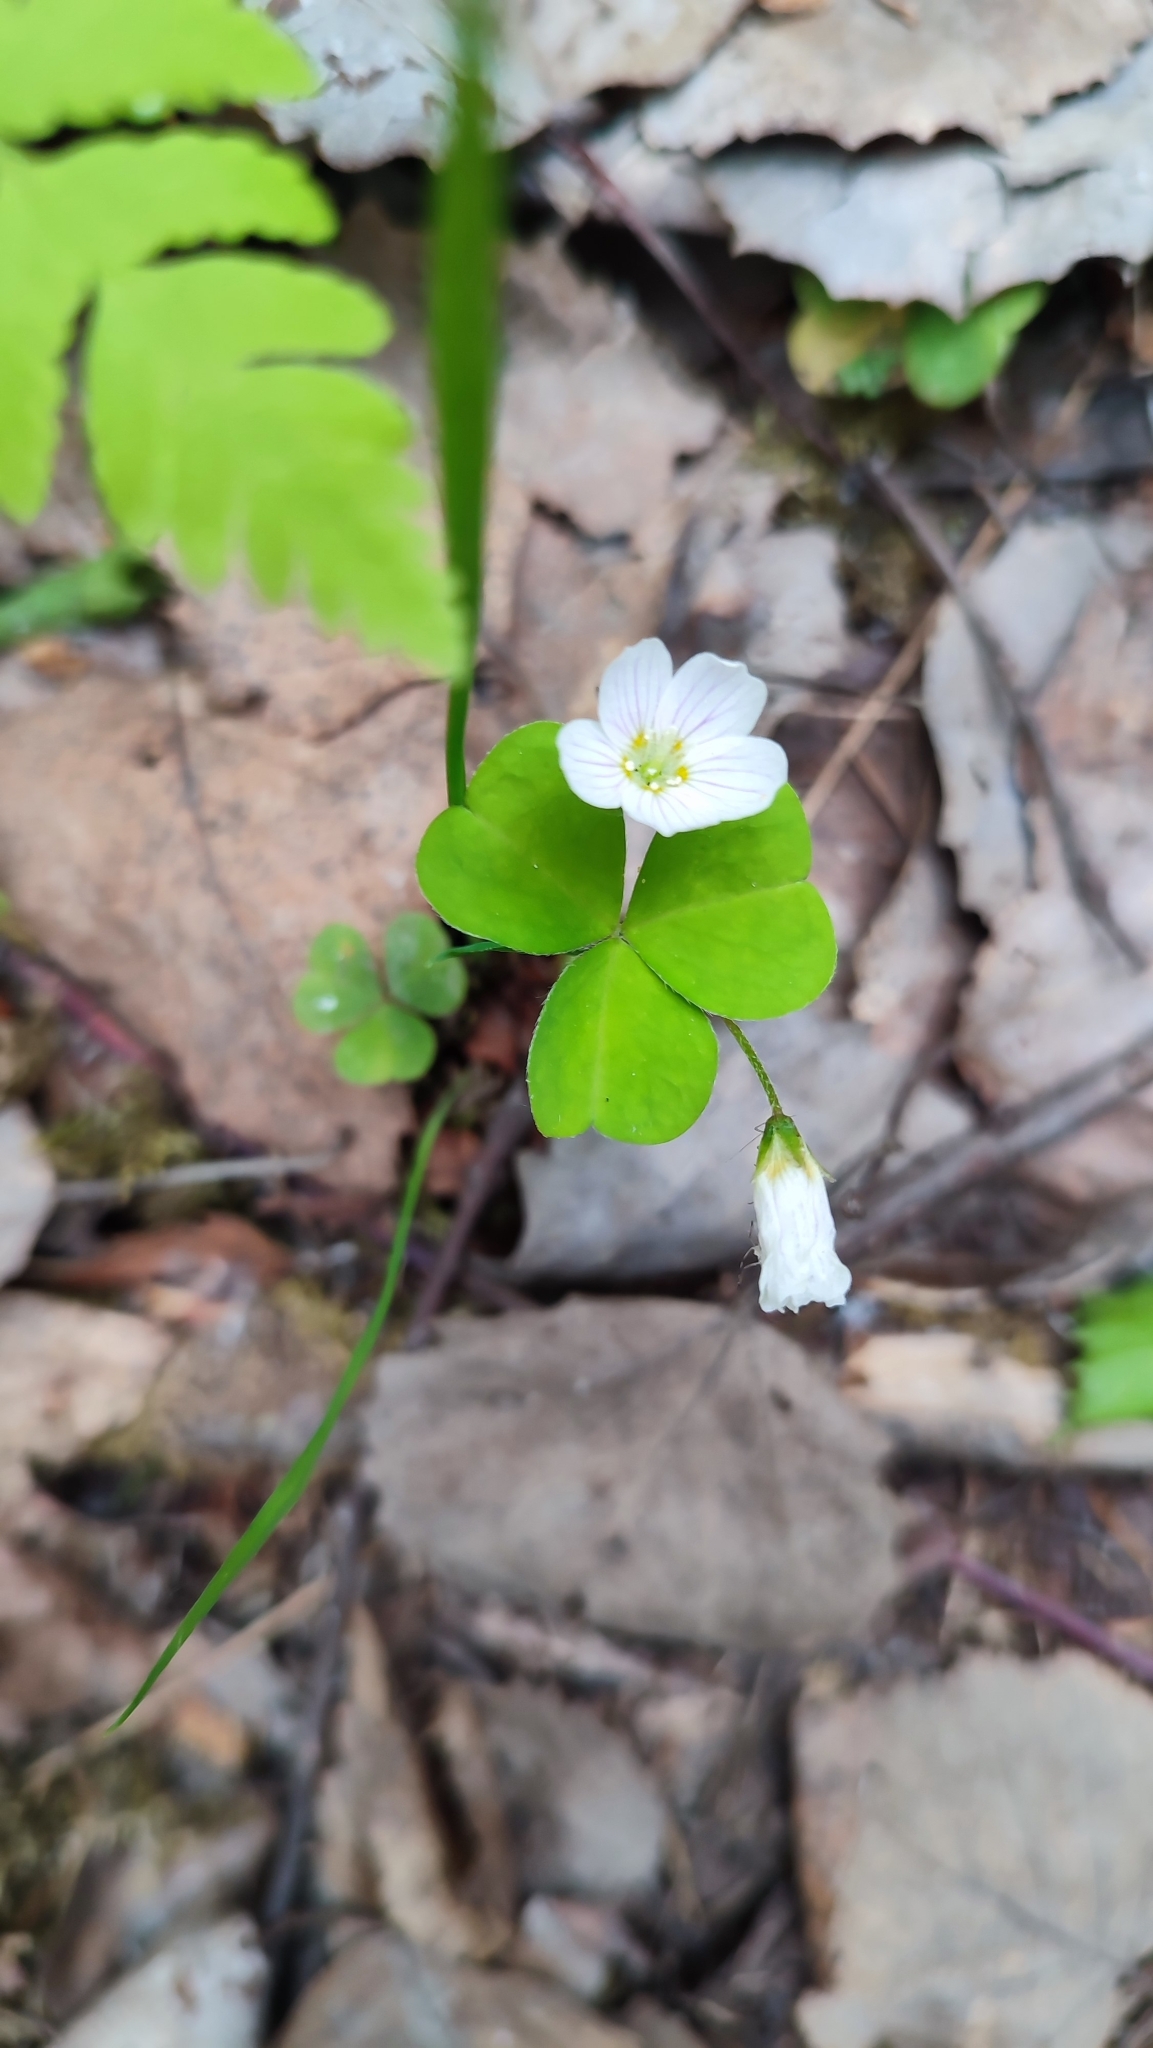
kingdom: Plantae
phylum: Tracheophyta
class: Magnoliopsida
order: Oxalidales
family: Oxalidaceae
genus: Oxalis
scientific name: Oxalis acetosella
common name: Wood-sorrel
